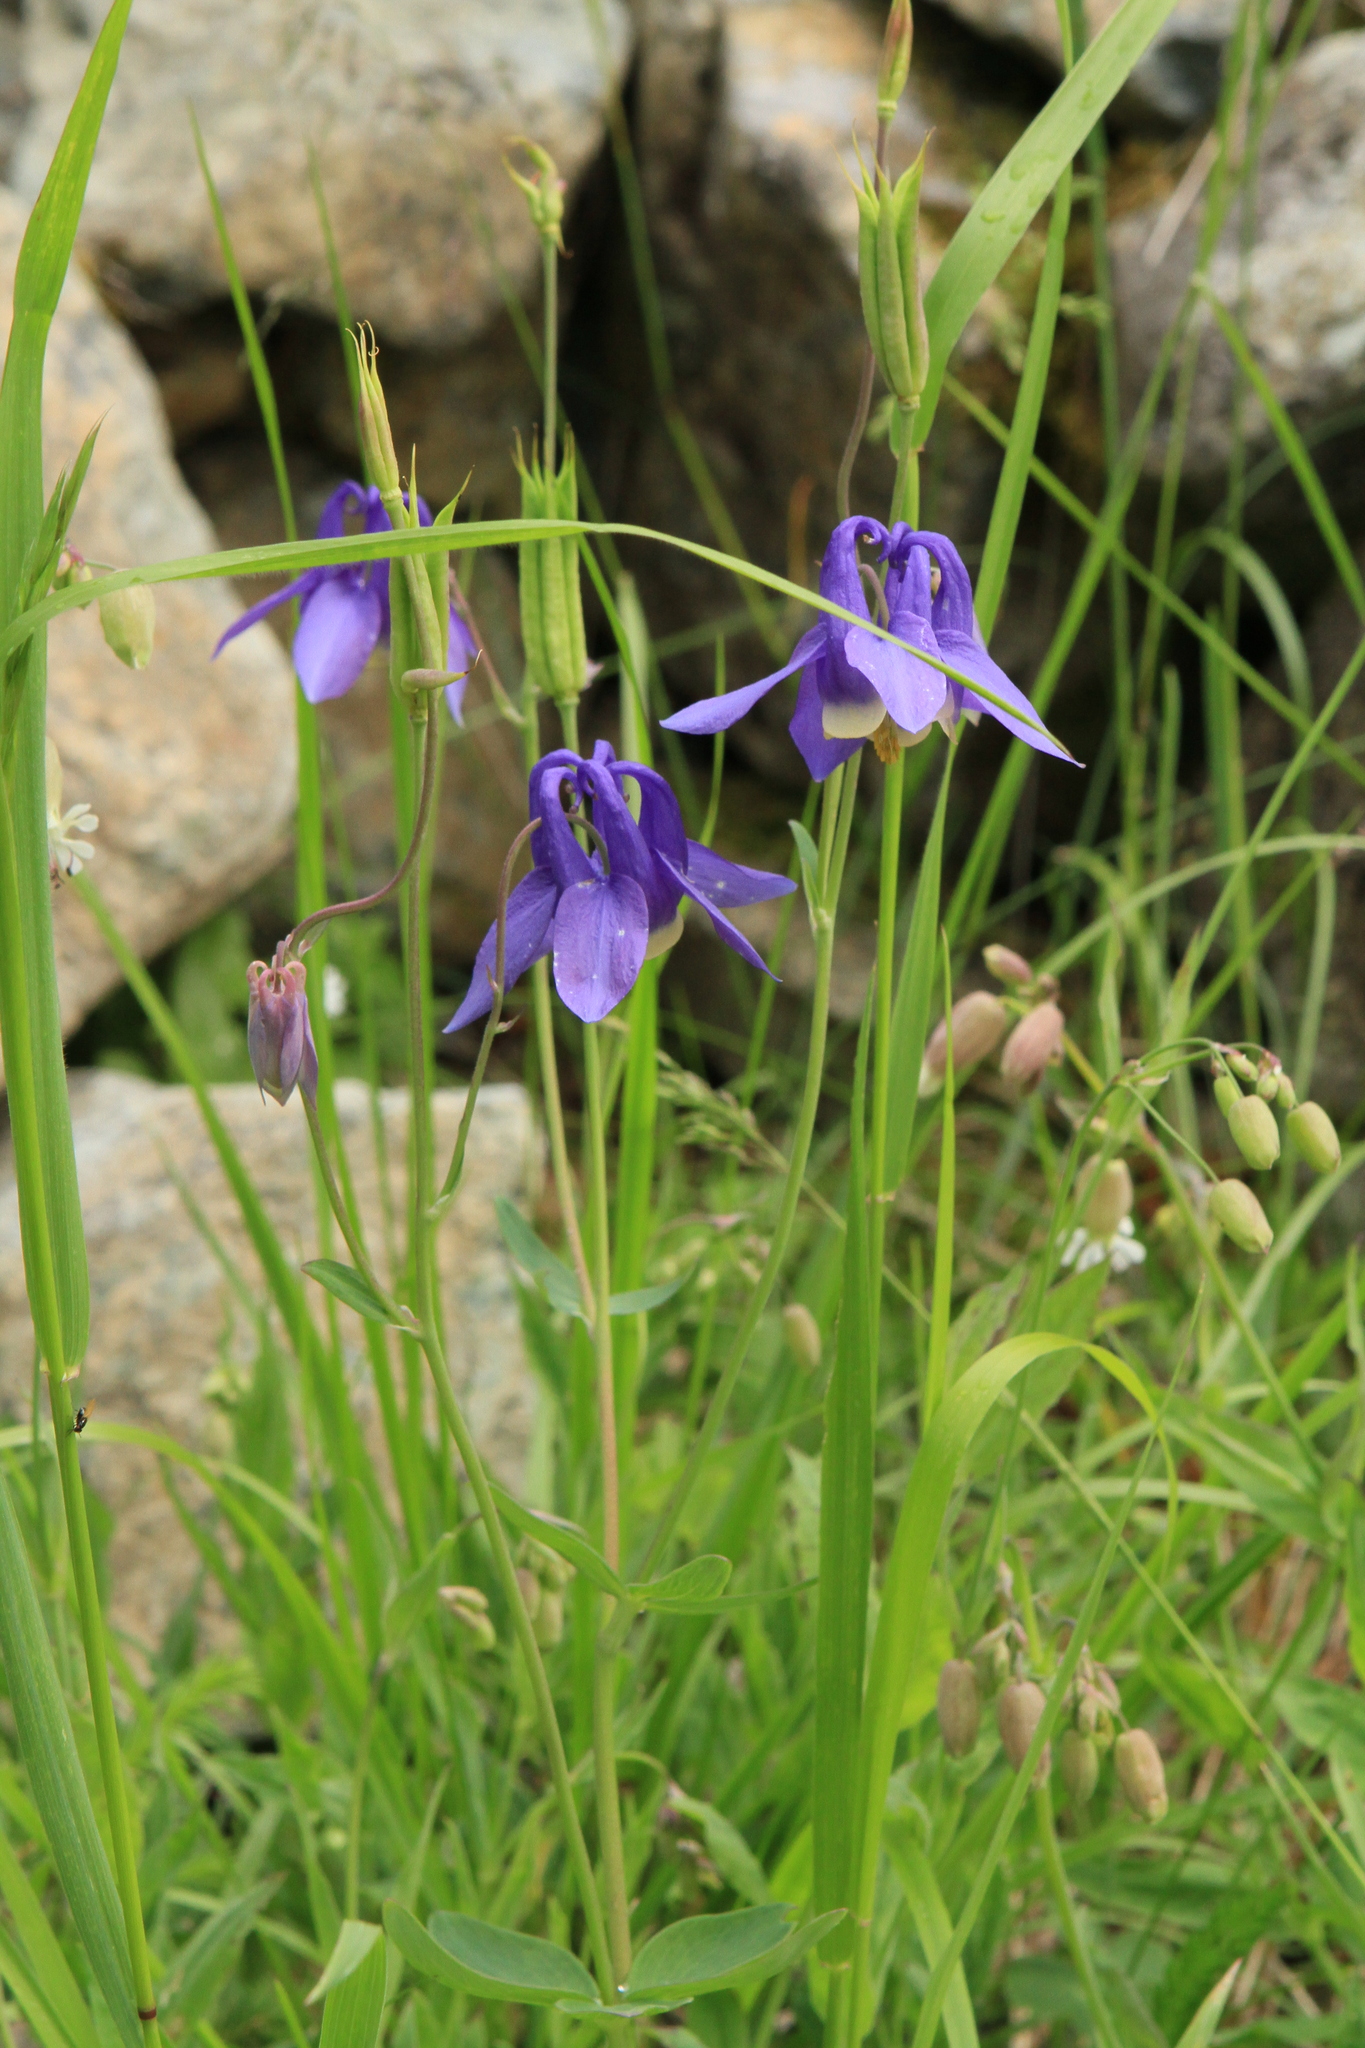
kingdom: Plantae
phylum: Tracheophyta
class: Magnoliopsida
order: Ranunculales
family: Ranunculaceae
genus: Aquilegia
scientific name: Aquilegia sibirica
